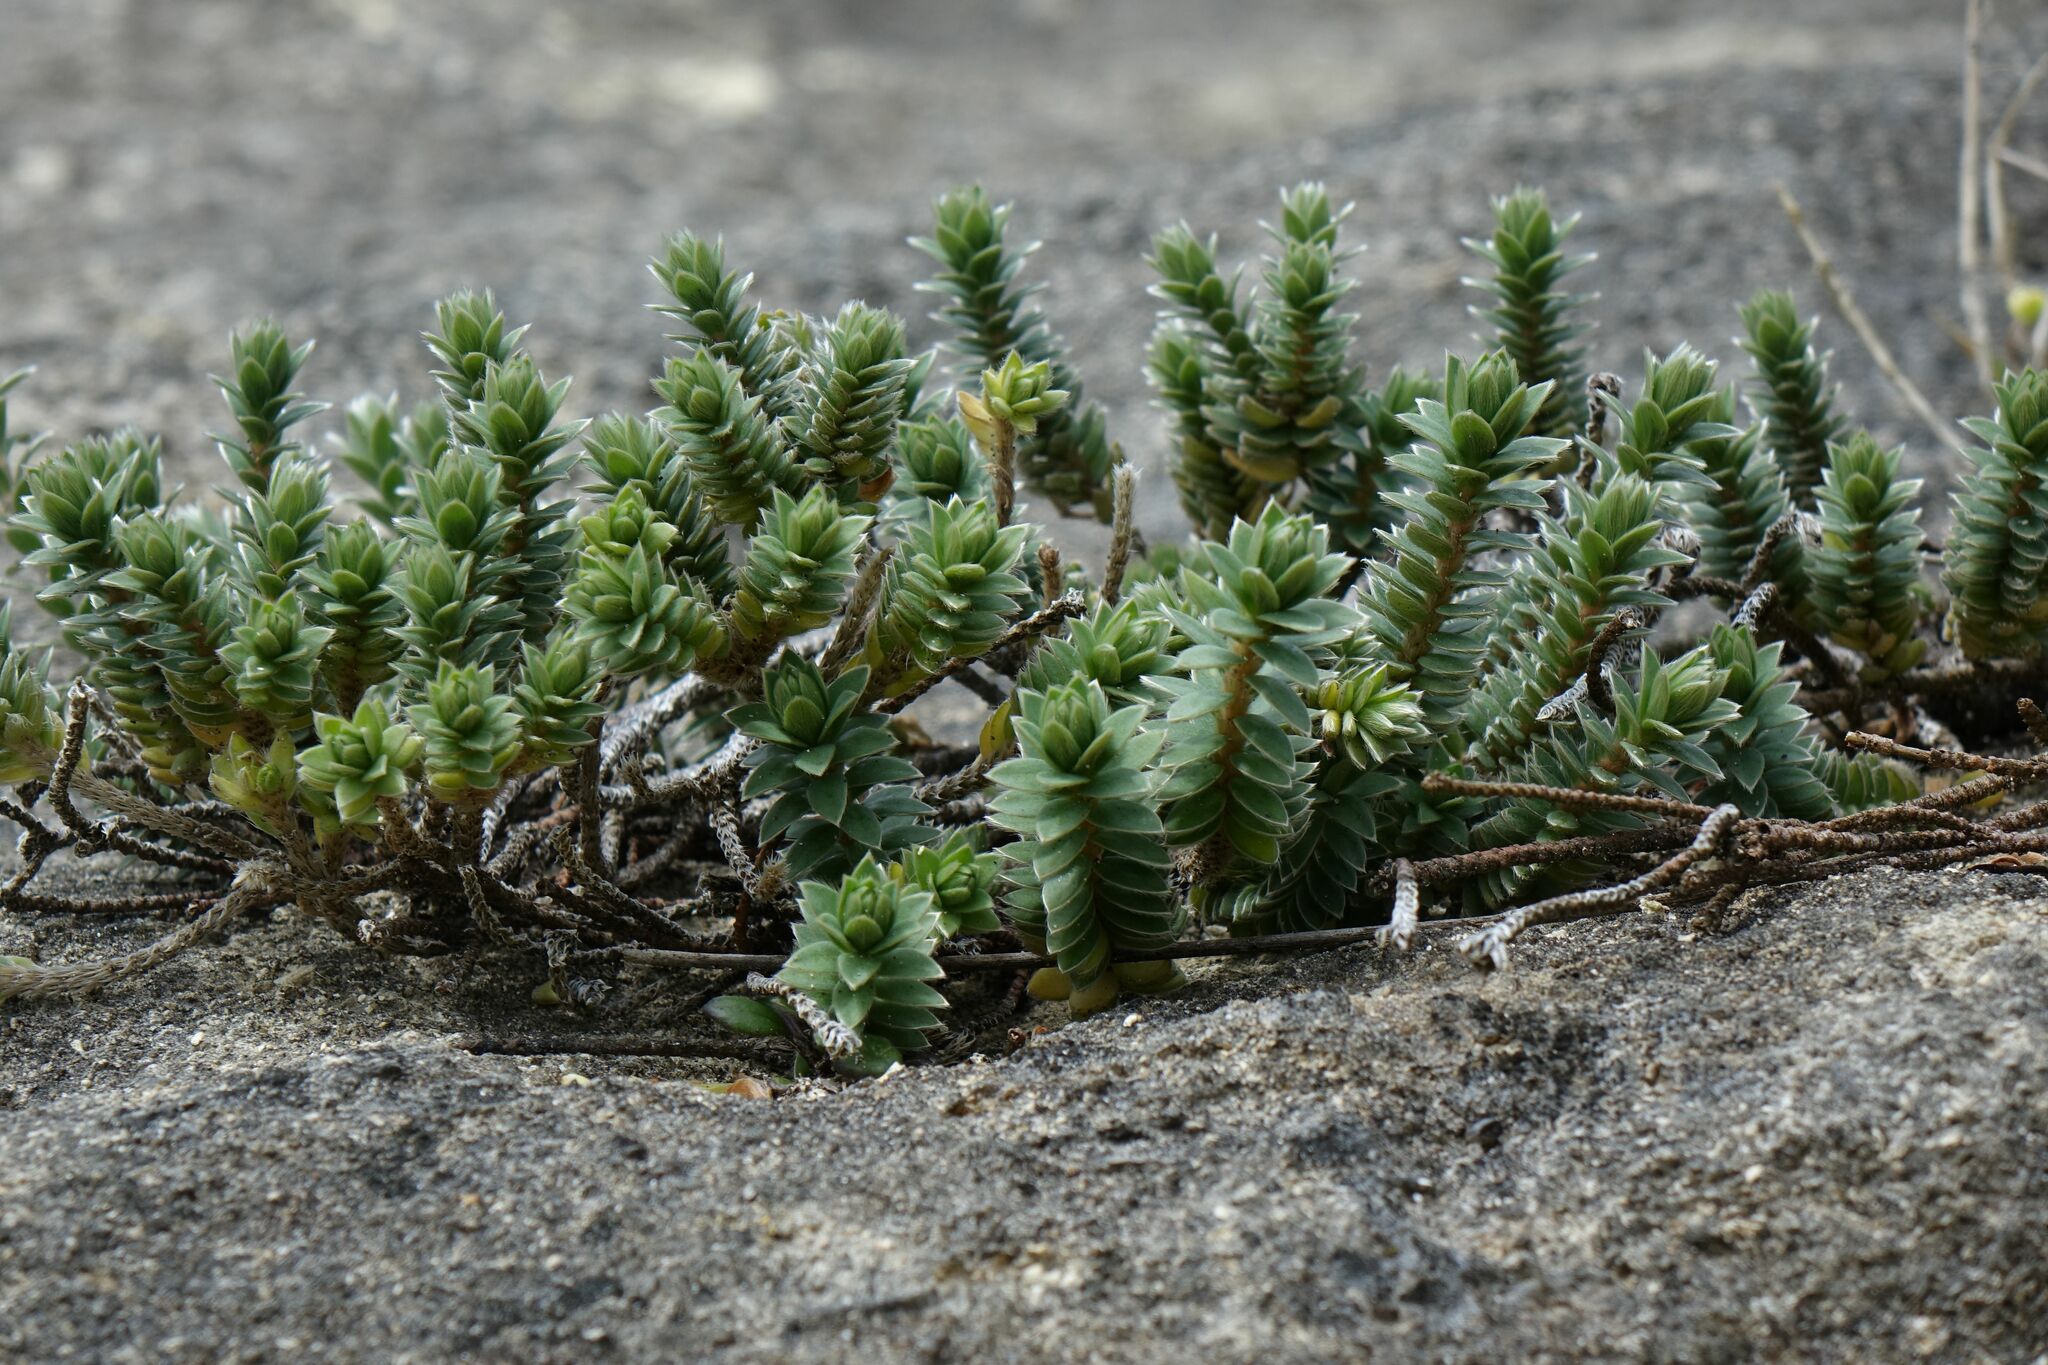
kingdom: Plantae
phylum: Tracheophyta
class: Magnoliopsida
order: Malvales
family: Thymelaeaceae
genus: Pimelea
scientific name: Pimelea villosa
